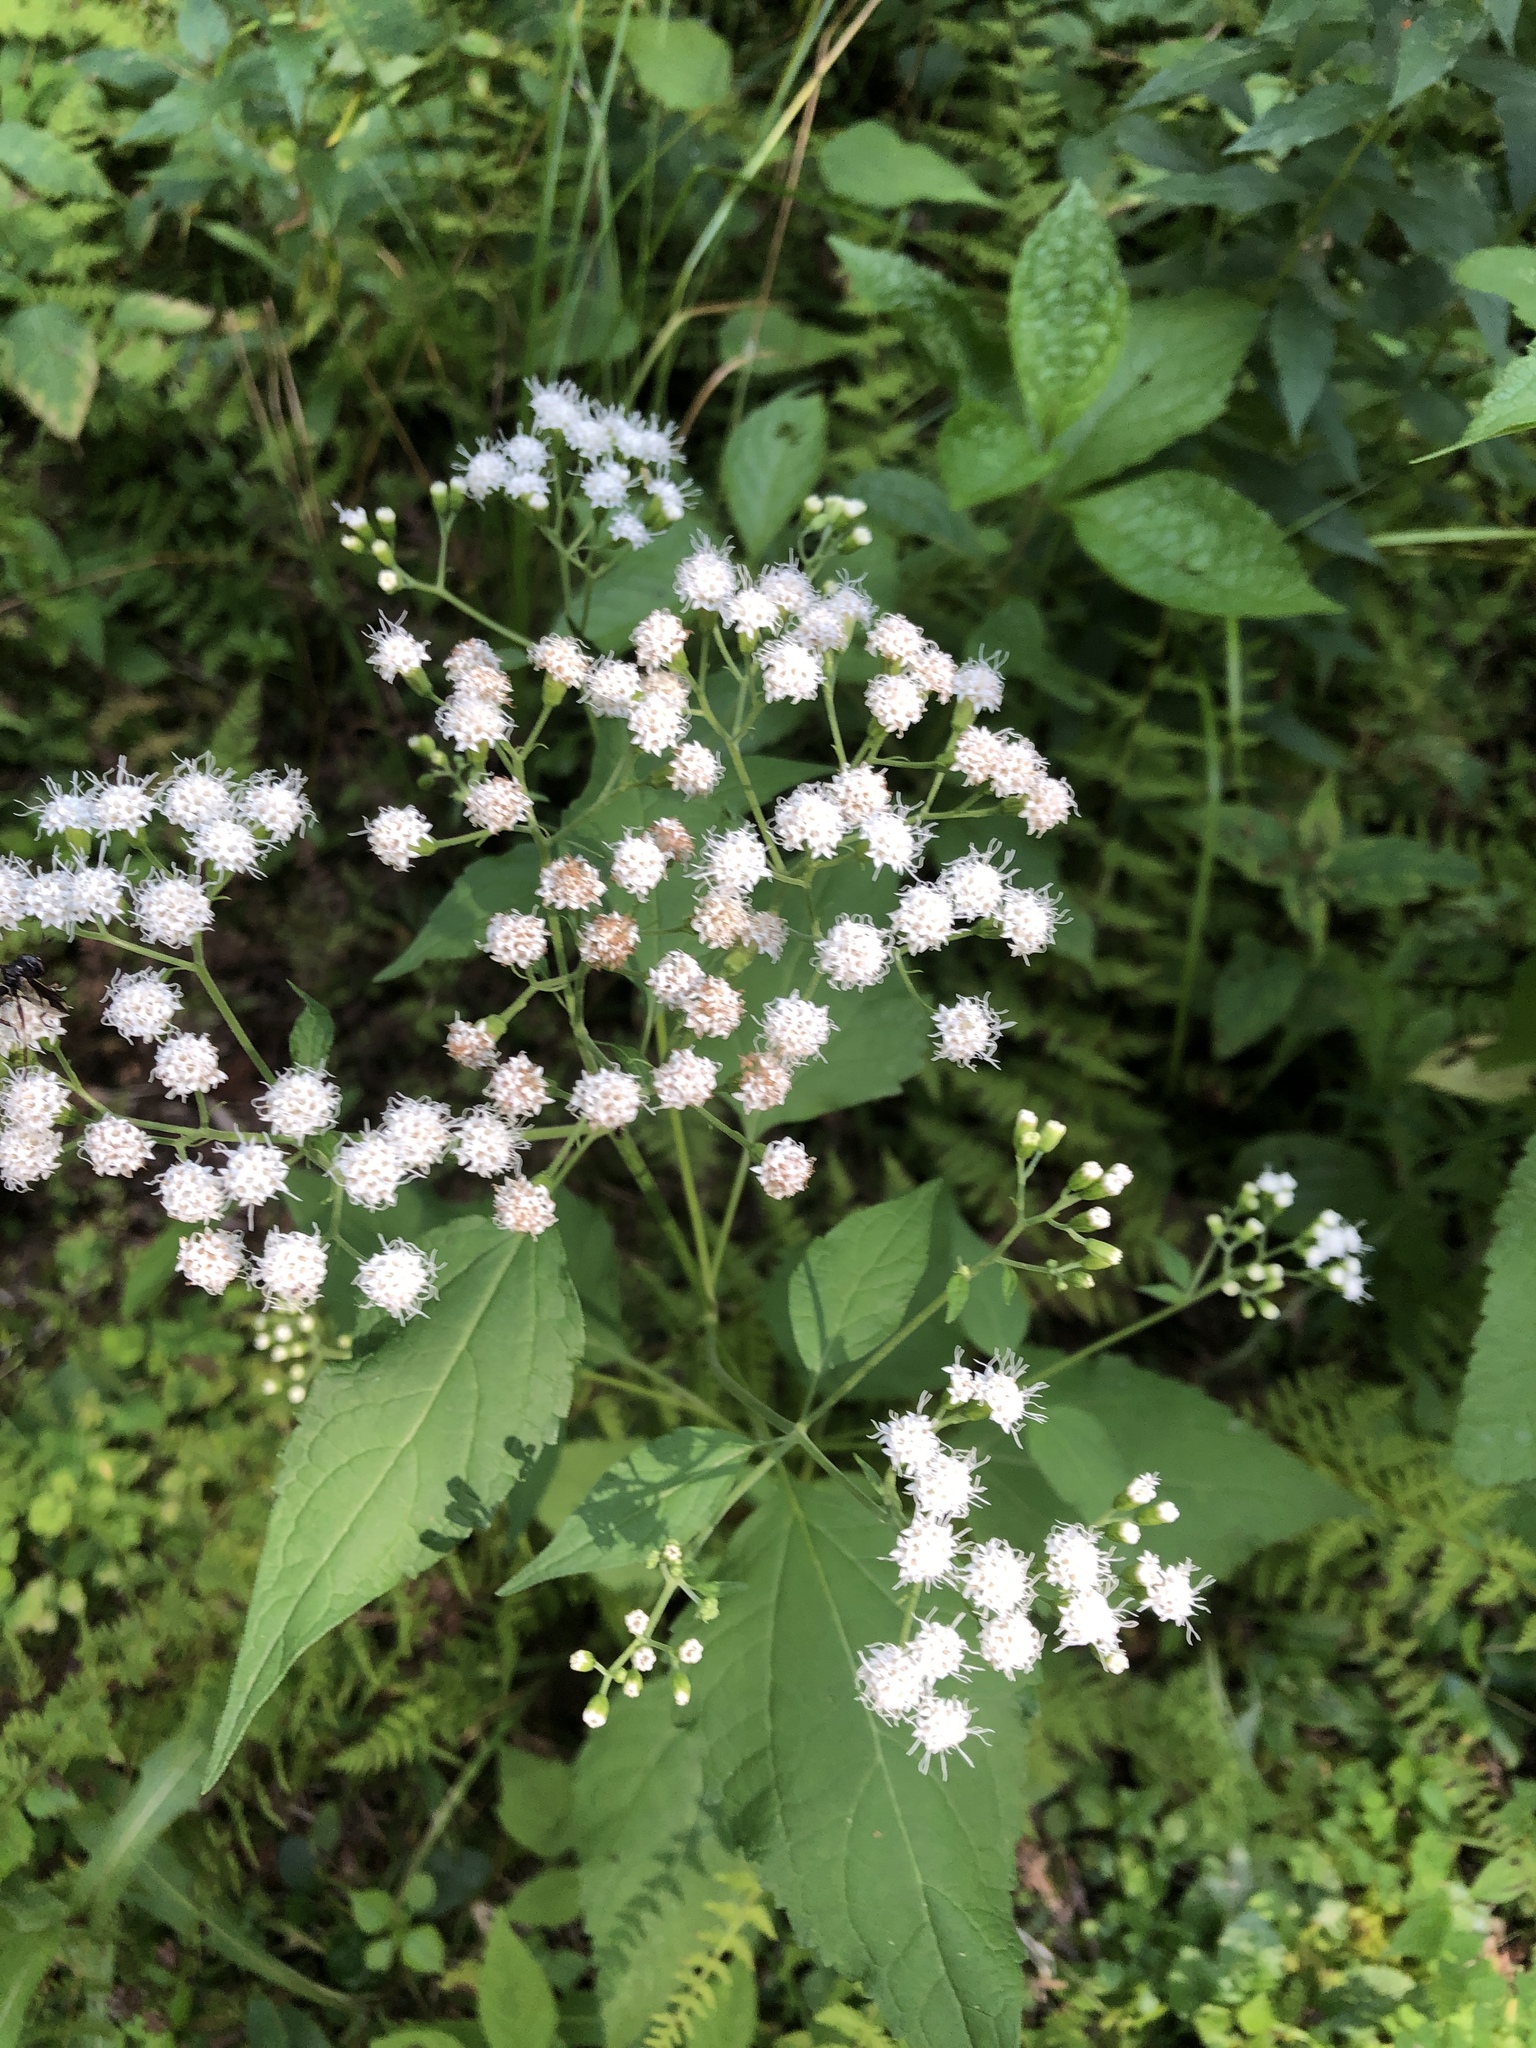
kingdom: Plantae
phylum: Tracheophyta
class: Magnoliopsida
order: Asterales
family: Asteraceae
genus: Ageratina
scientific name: Ageratina altissima
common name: White snakeroot
